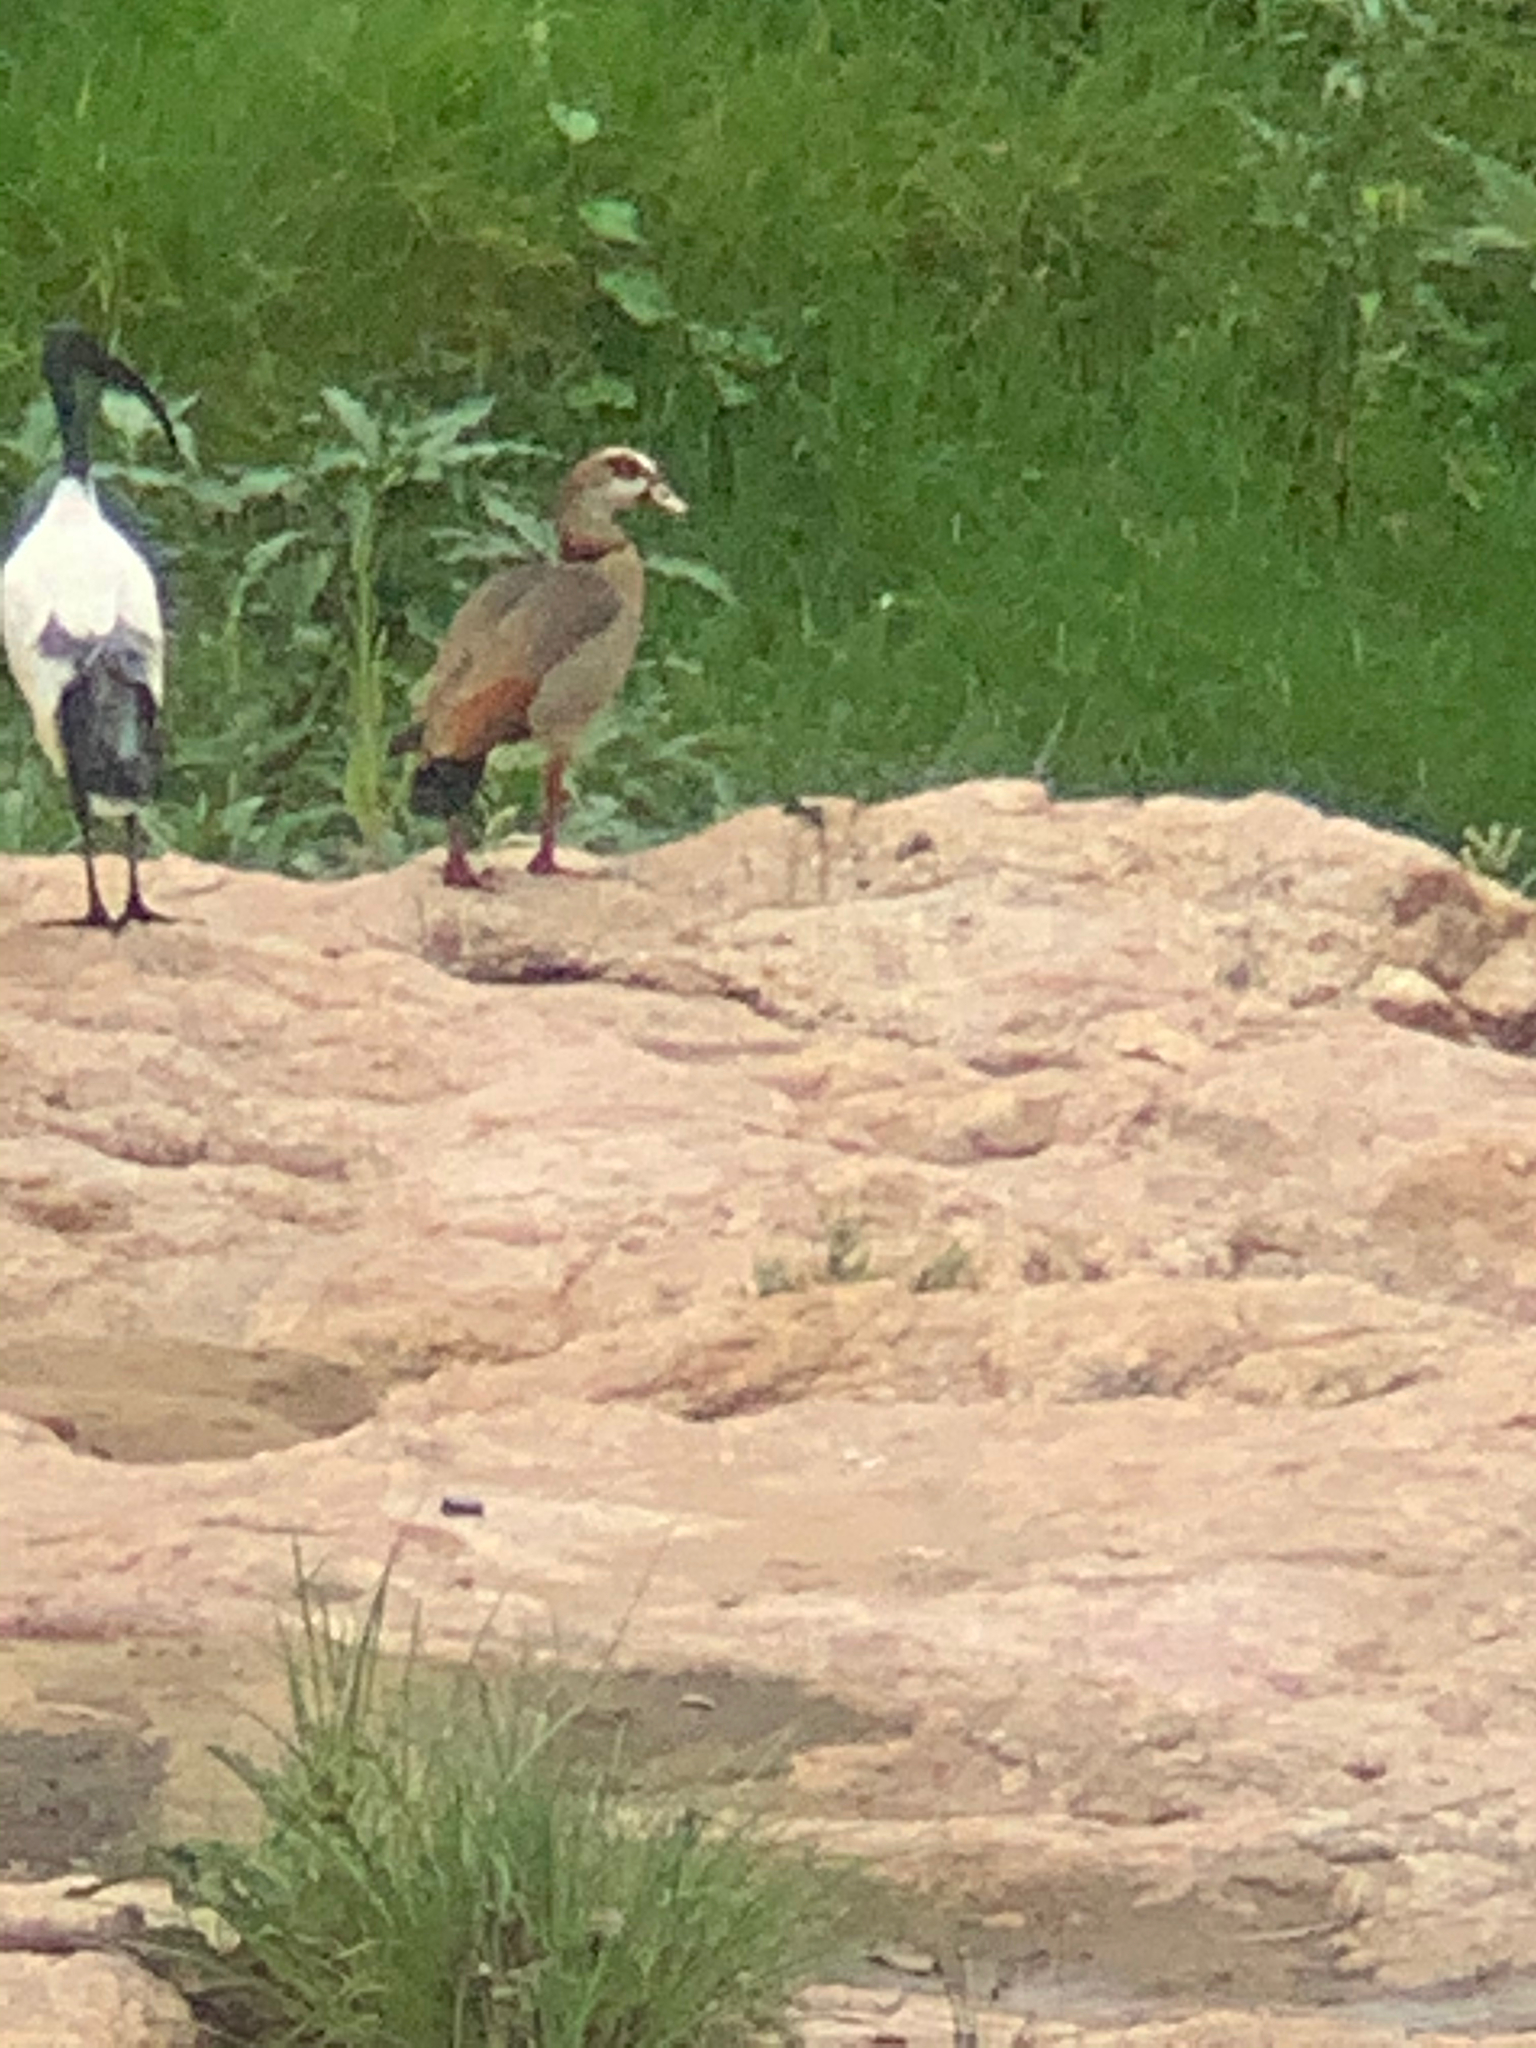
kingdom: Animalia
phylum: Chordata
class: Aves
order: Anseriformes
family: Anatidae
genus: Alopochen
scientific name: Alopochen aegyptiaca
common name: Egyptian goose
